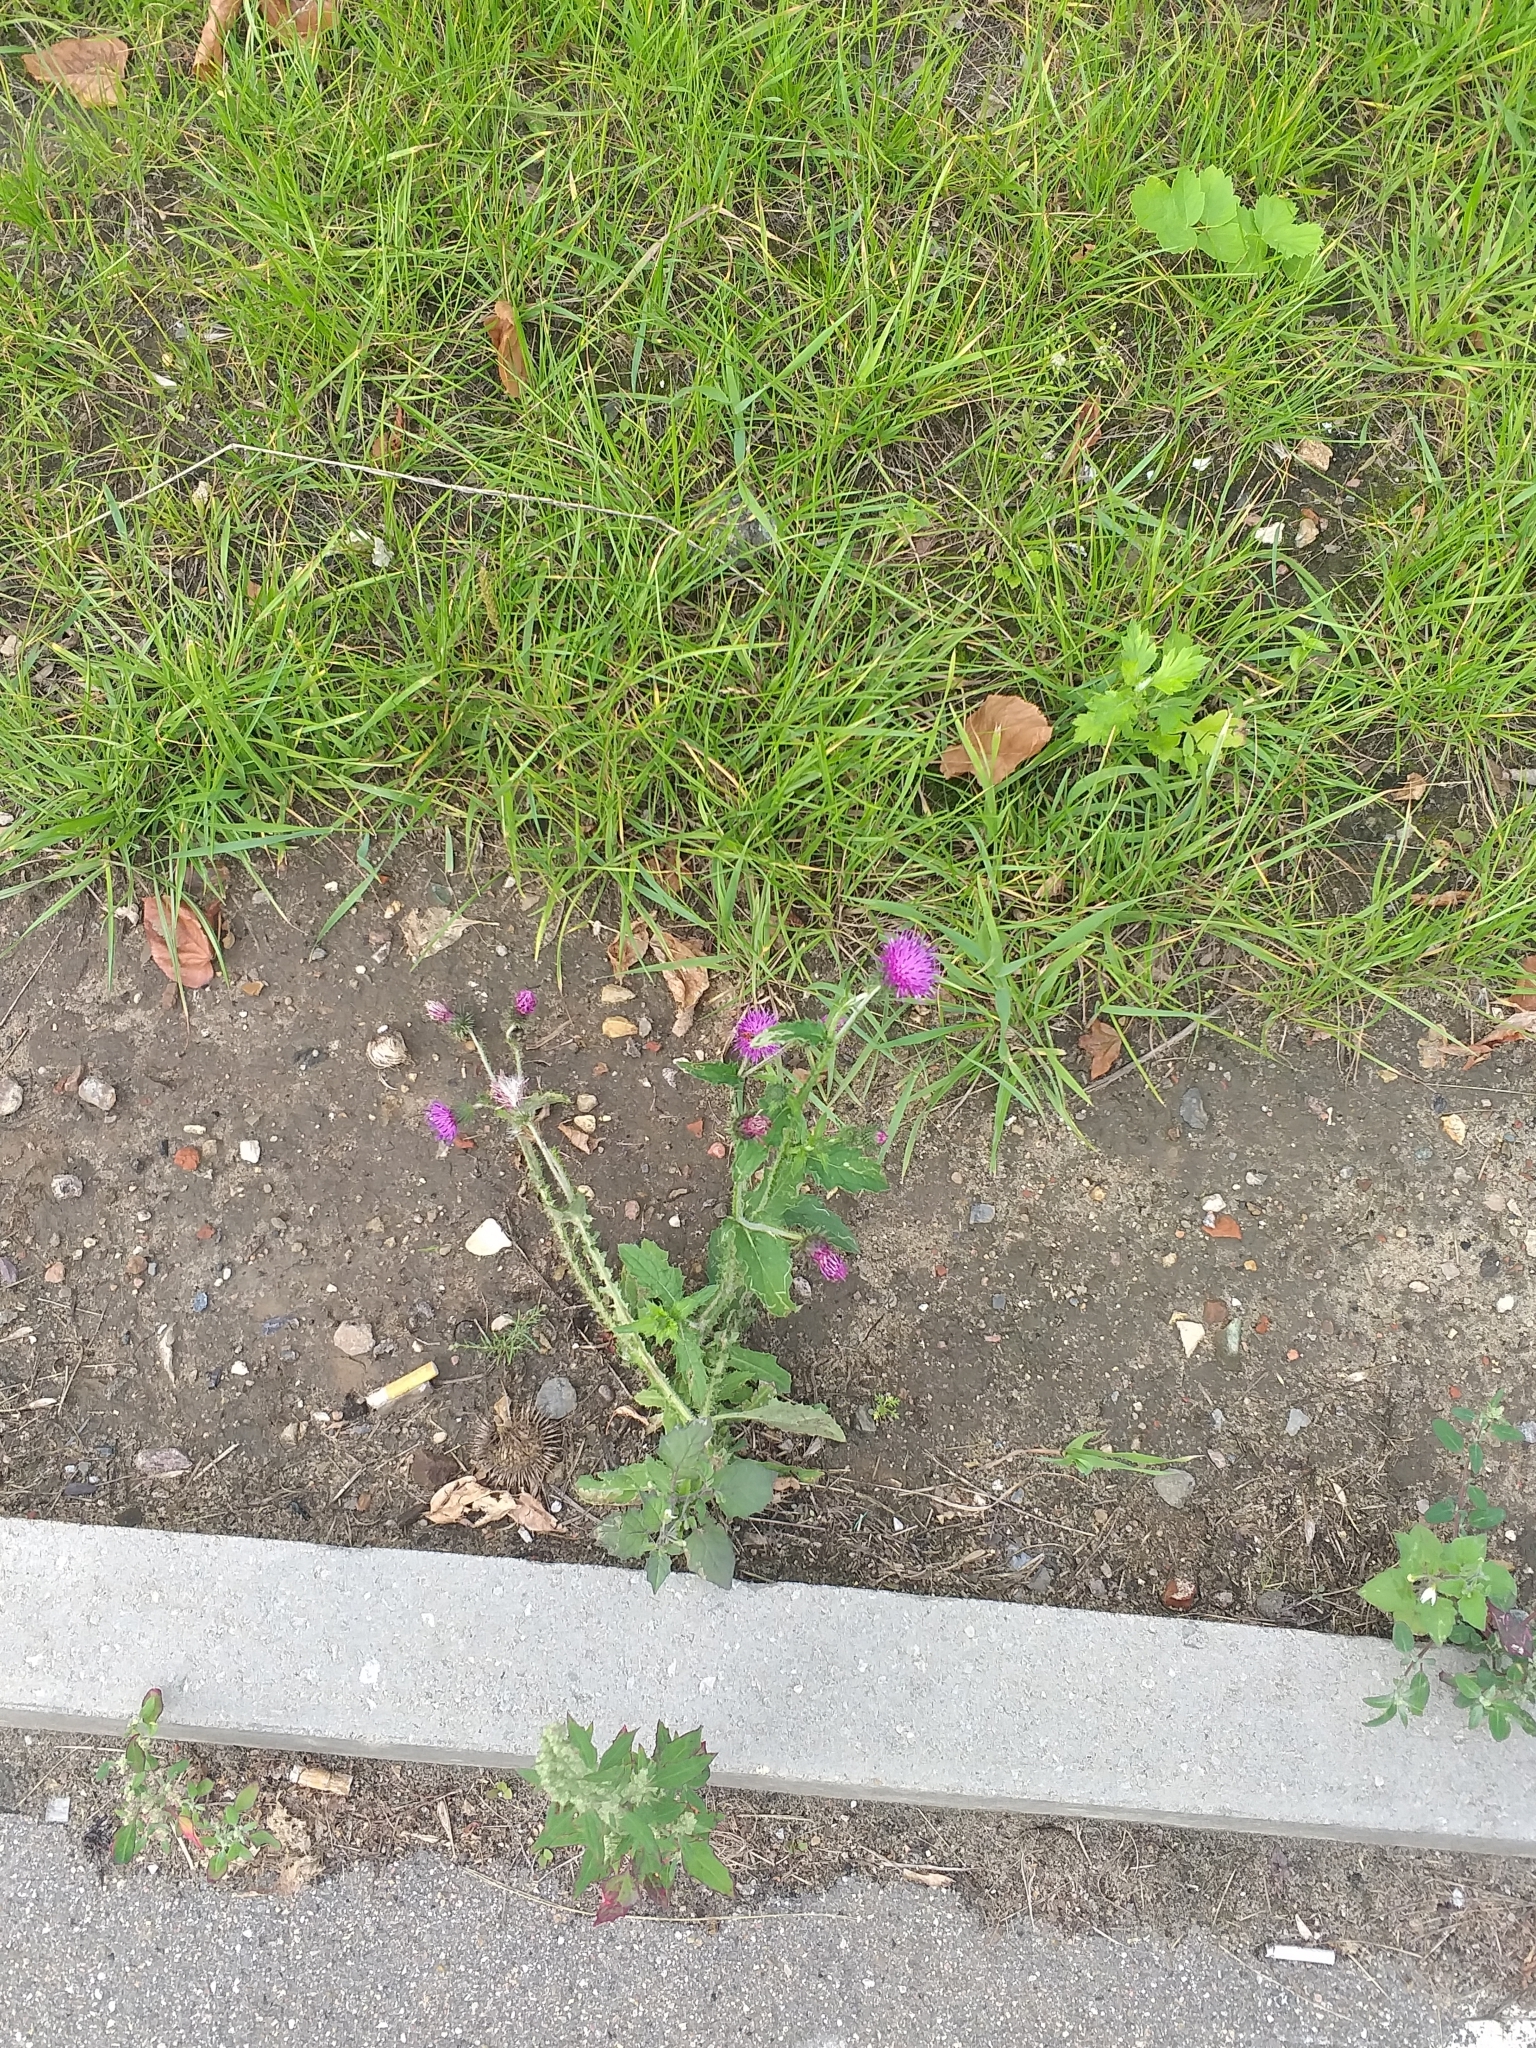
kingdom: Plantae
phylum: Tracheophyta
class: Magnoliopsida
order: Asterales
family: Asteraceae
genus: Carduus
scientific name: Carduus crispus
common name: Welted thistle
